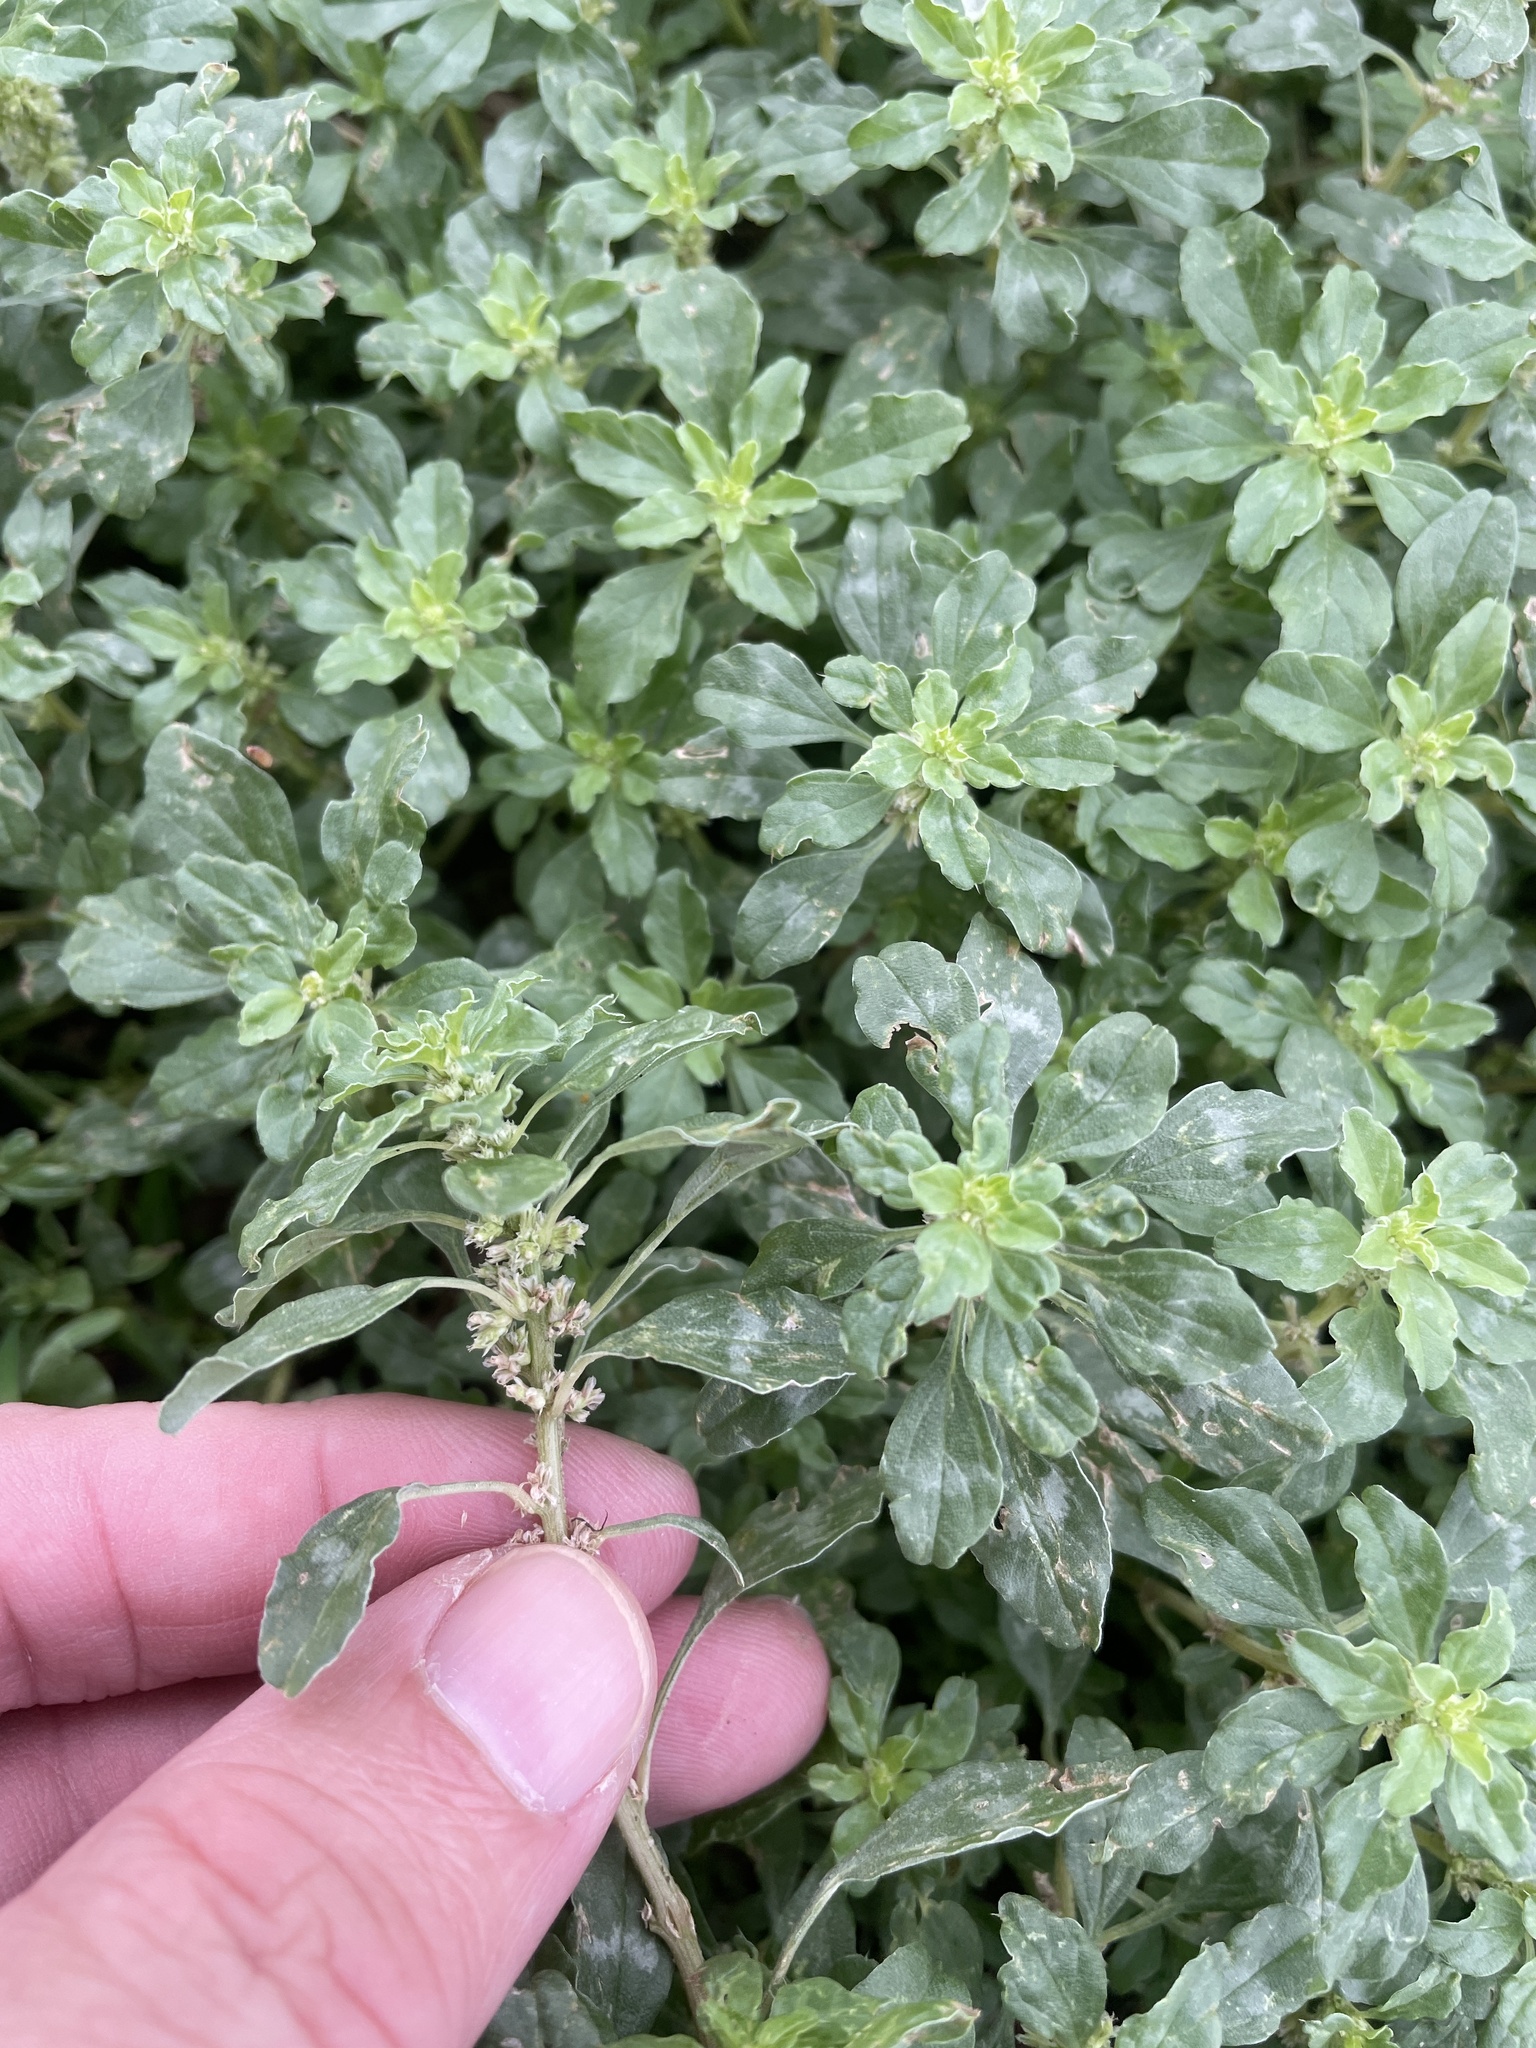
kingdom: Plantae
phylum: Tracheophyta
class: Magnoliopsida
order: Caryophyllales
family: Amaranthaceae
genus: Amaranthus
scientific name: Amaranthus polygonoides
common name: Tropical amaranth
